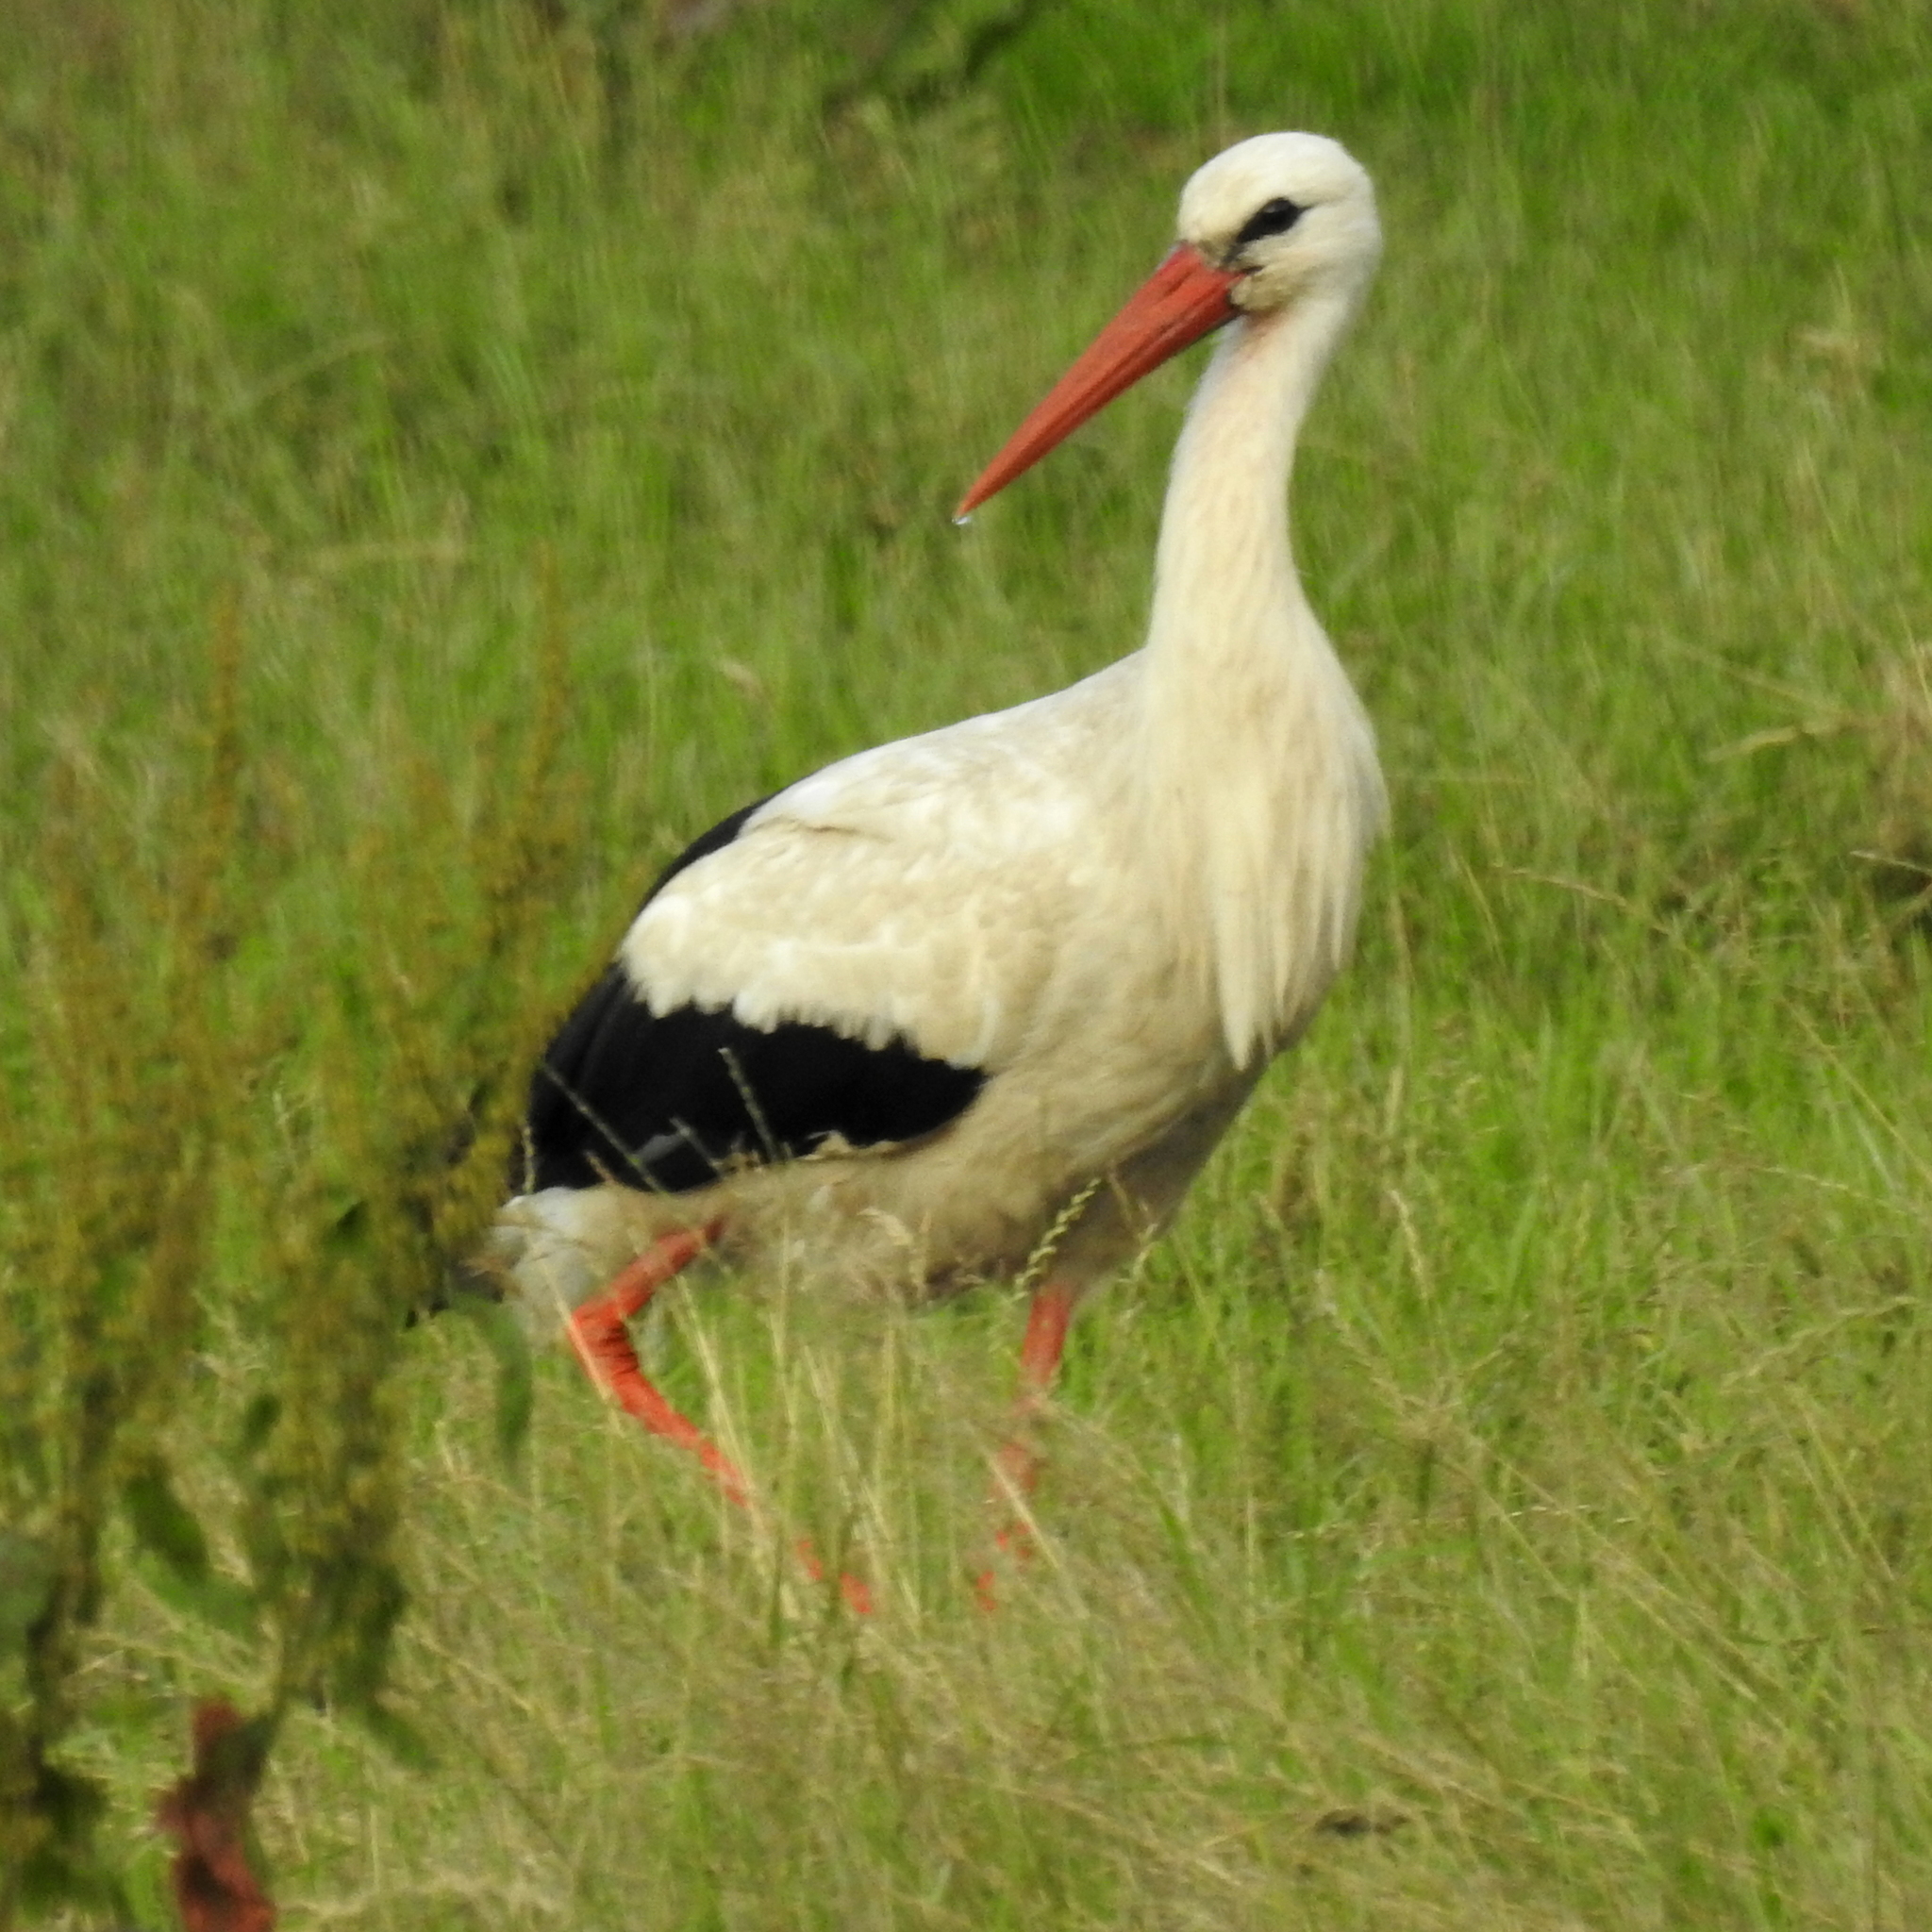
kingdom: Animalia
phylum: Chordata
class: Aves
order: Ciconiiformes
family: Ciconiidae
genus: Ciconia
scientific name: Ciconia ciconia
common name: White stork
